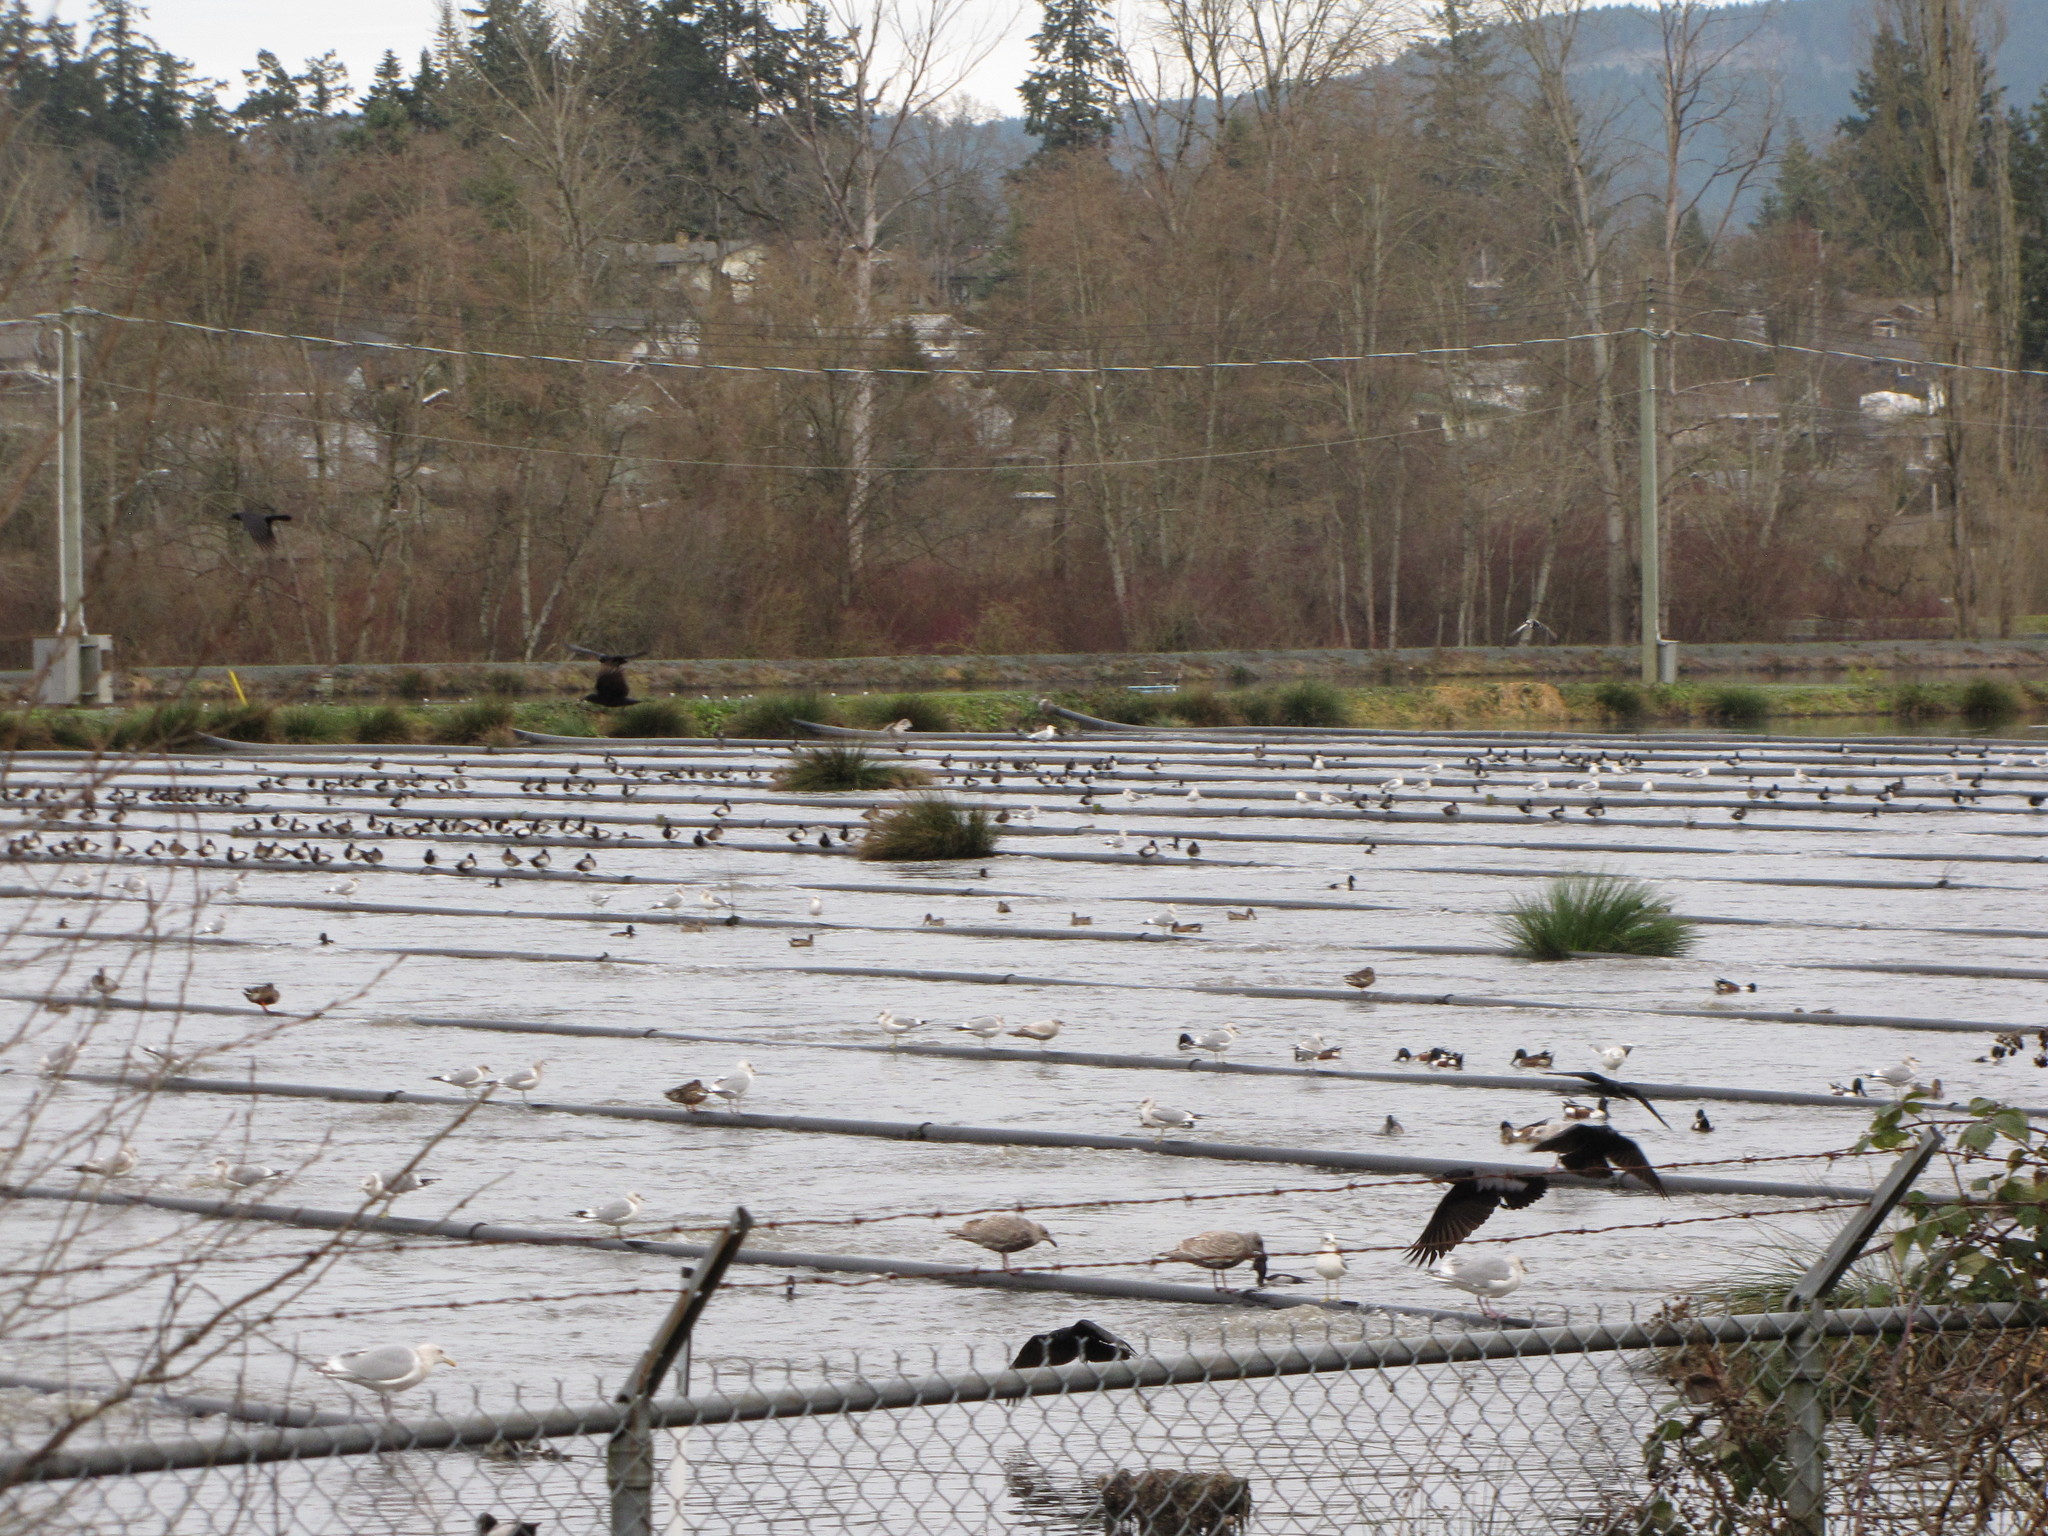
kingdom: Animalia
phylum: Chordata
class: Aves
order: Passeriformes
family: Corvidae
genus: Corvus
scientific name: Corvus brachyrhynchos
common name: American crow
